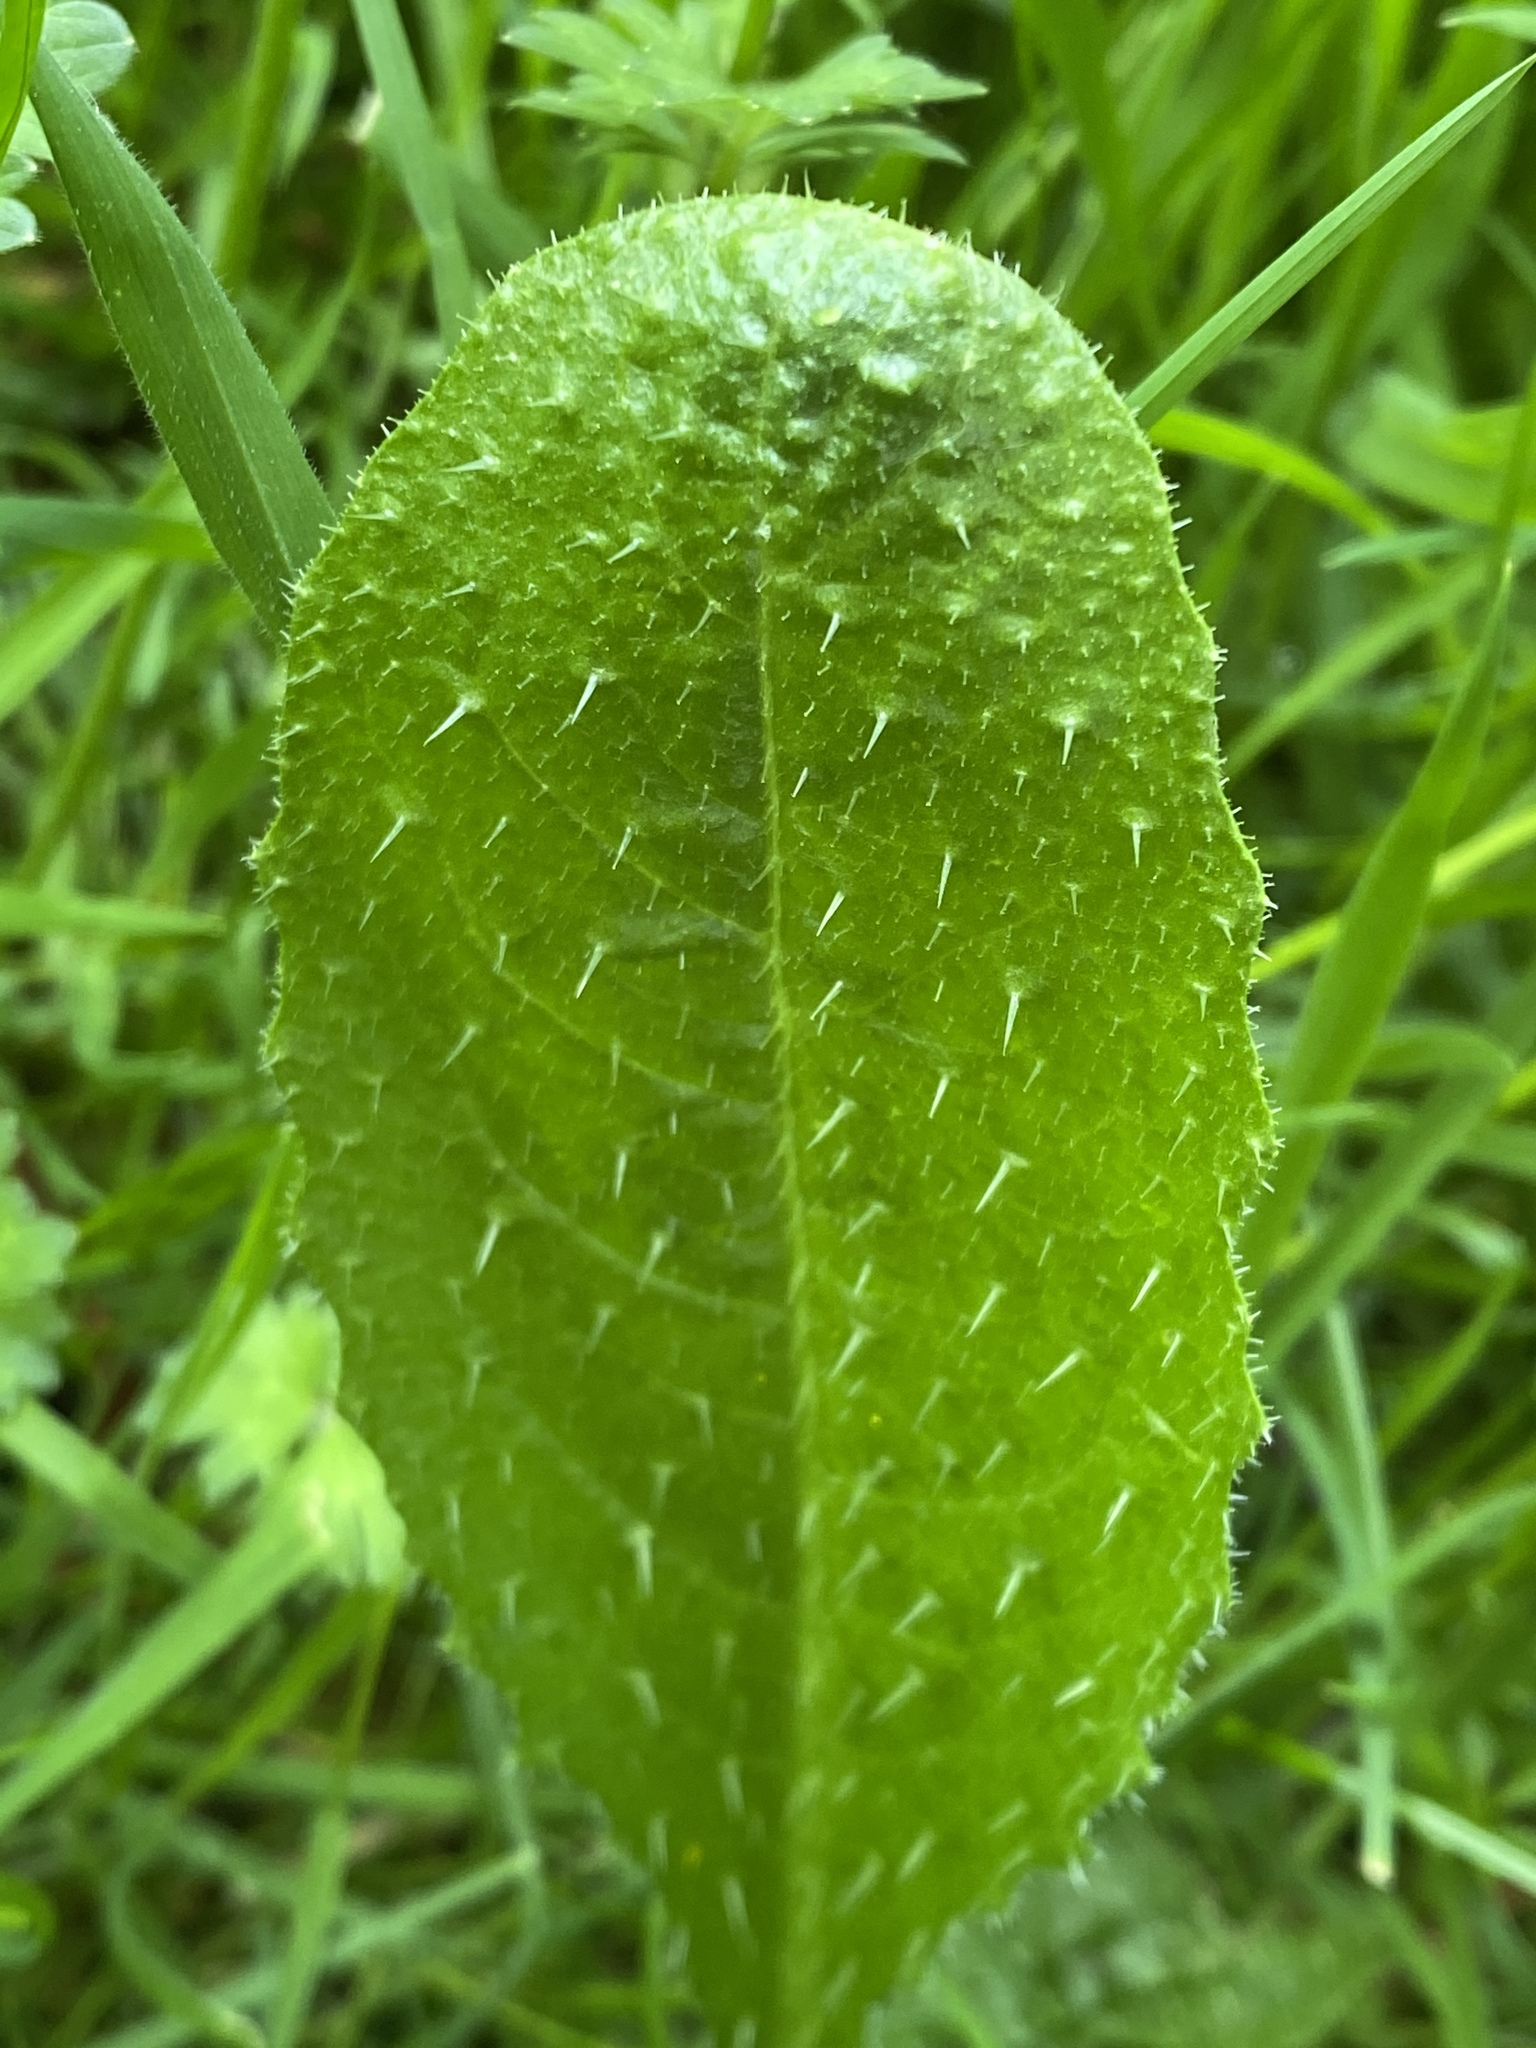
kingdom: Plantae
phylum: Tracheophyta
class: Magnoliopsida
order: Asterales
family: Asteraceae
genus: Helminthotheca
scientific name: Helminthotheca echioides
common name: Ox-tongue
